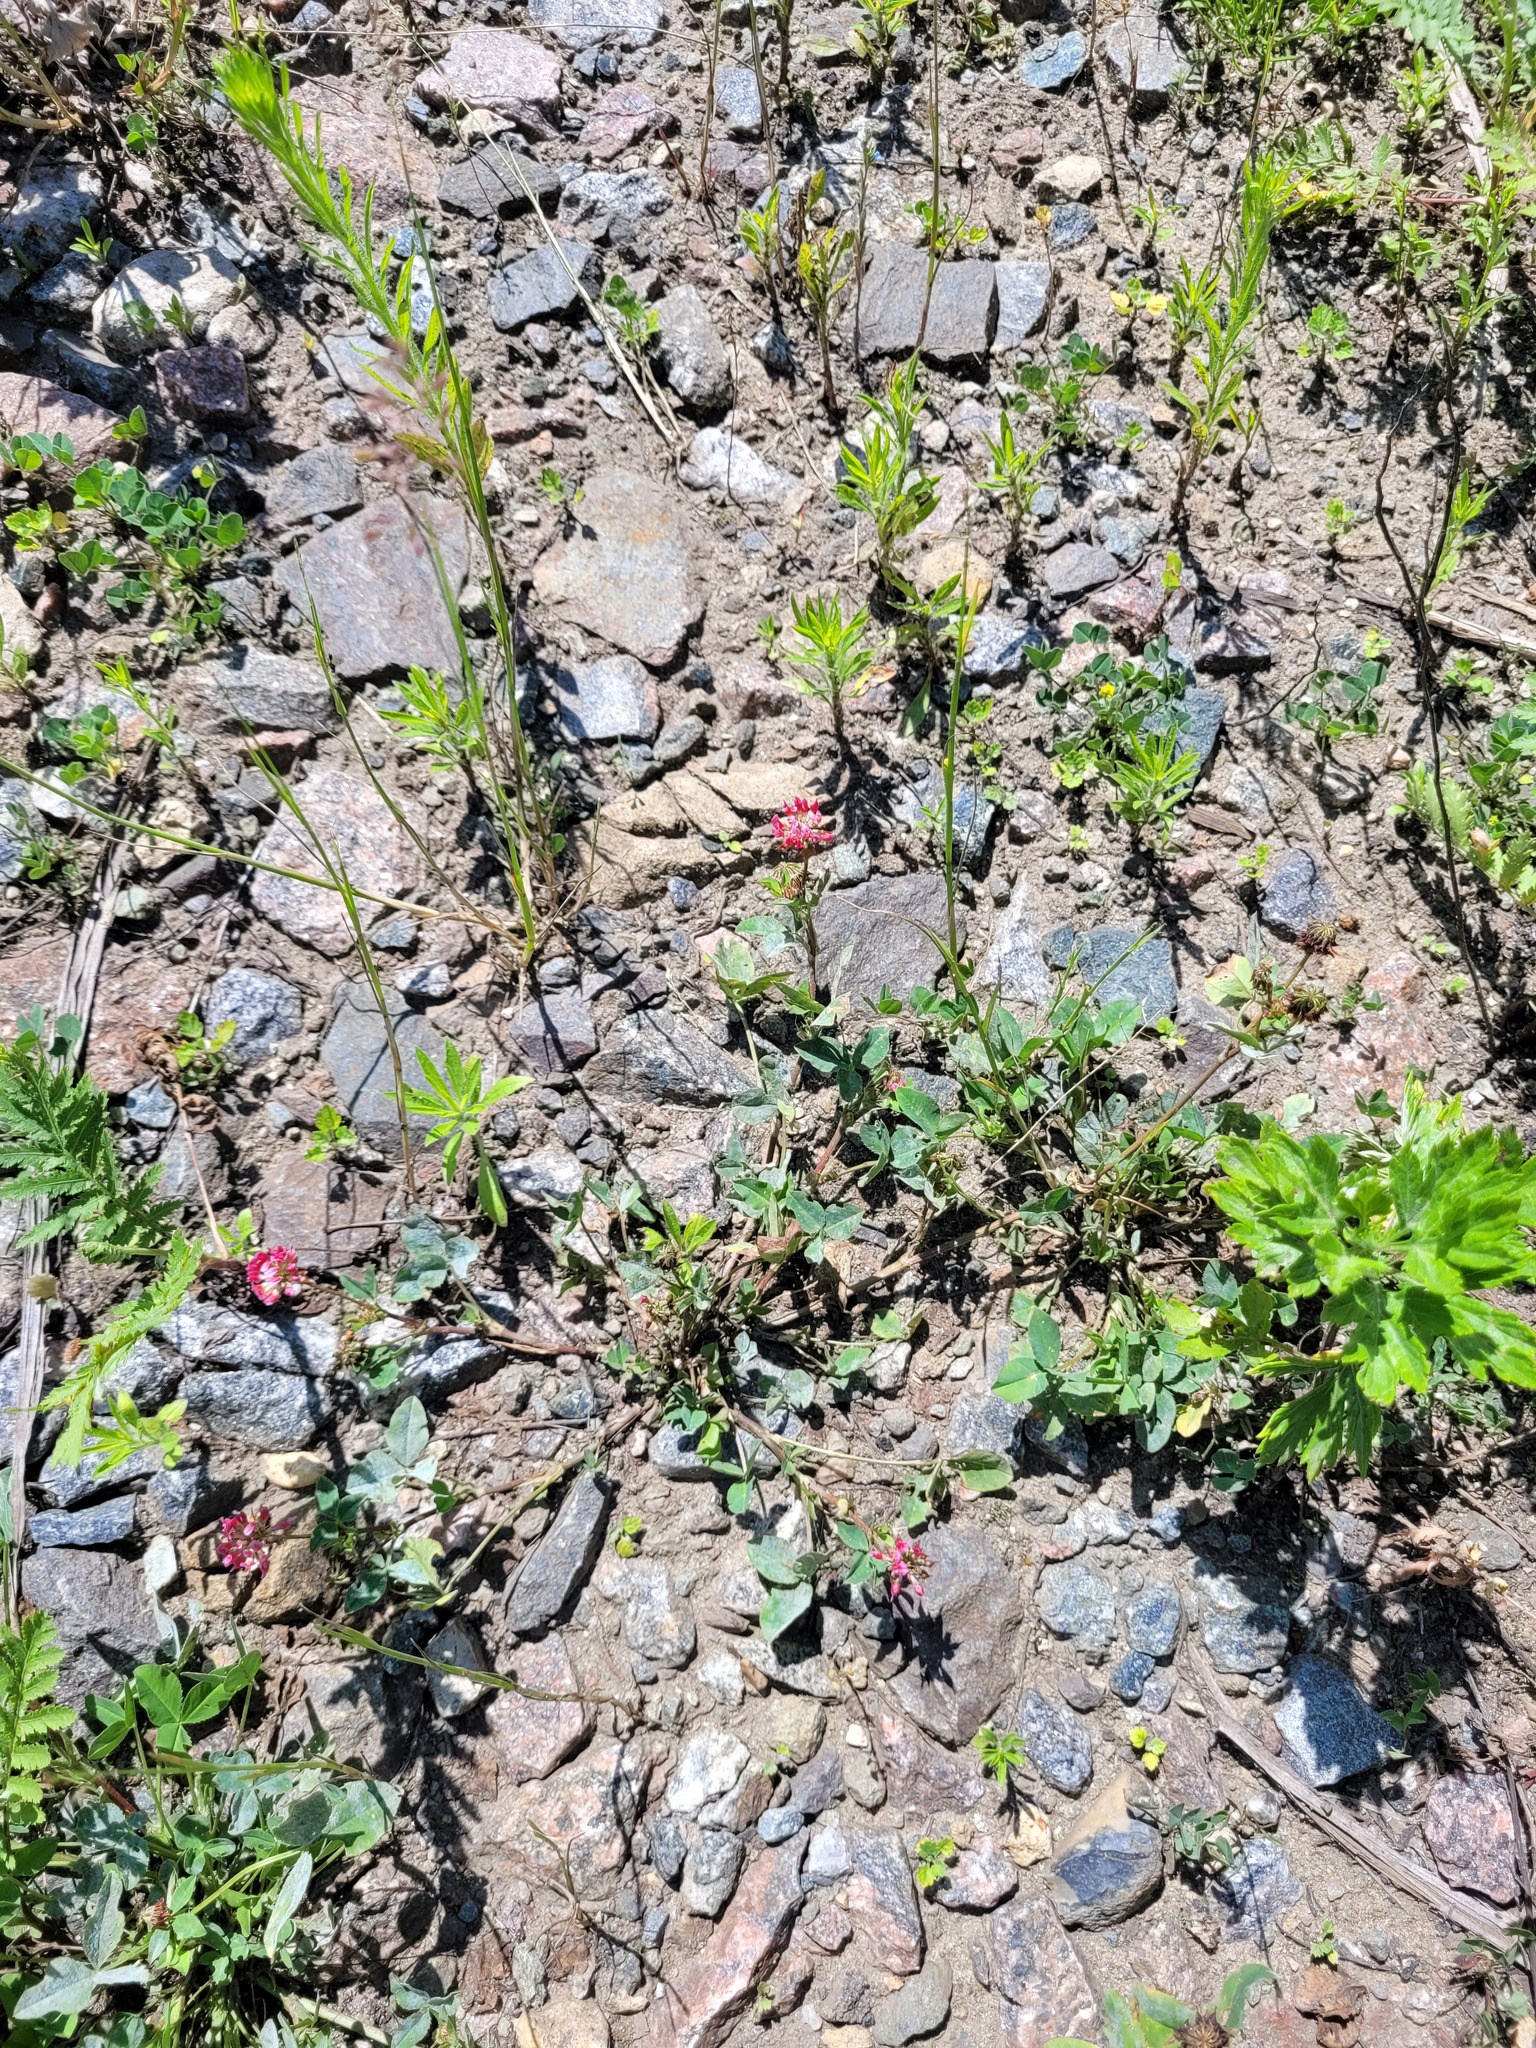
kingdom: Plantae
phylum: Tracheophyta
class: Magnoliopsida
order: Fabales
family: Fabaceae
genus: Trifolium
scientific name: Trifolium hybridum
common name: Alsike clover
